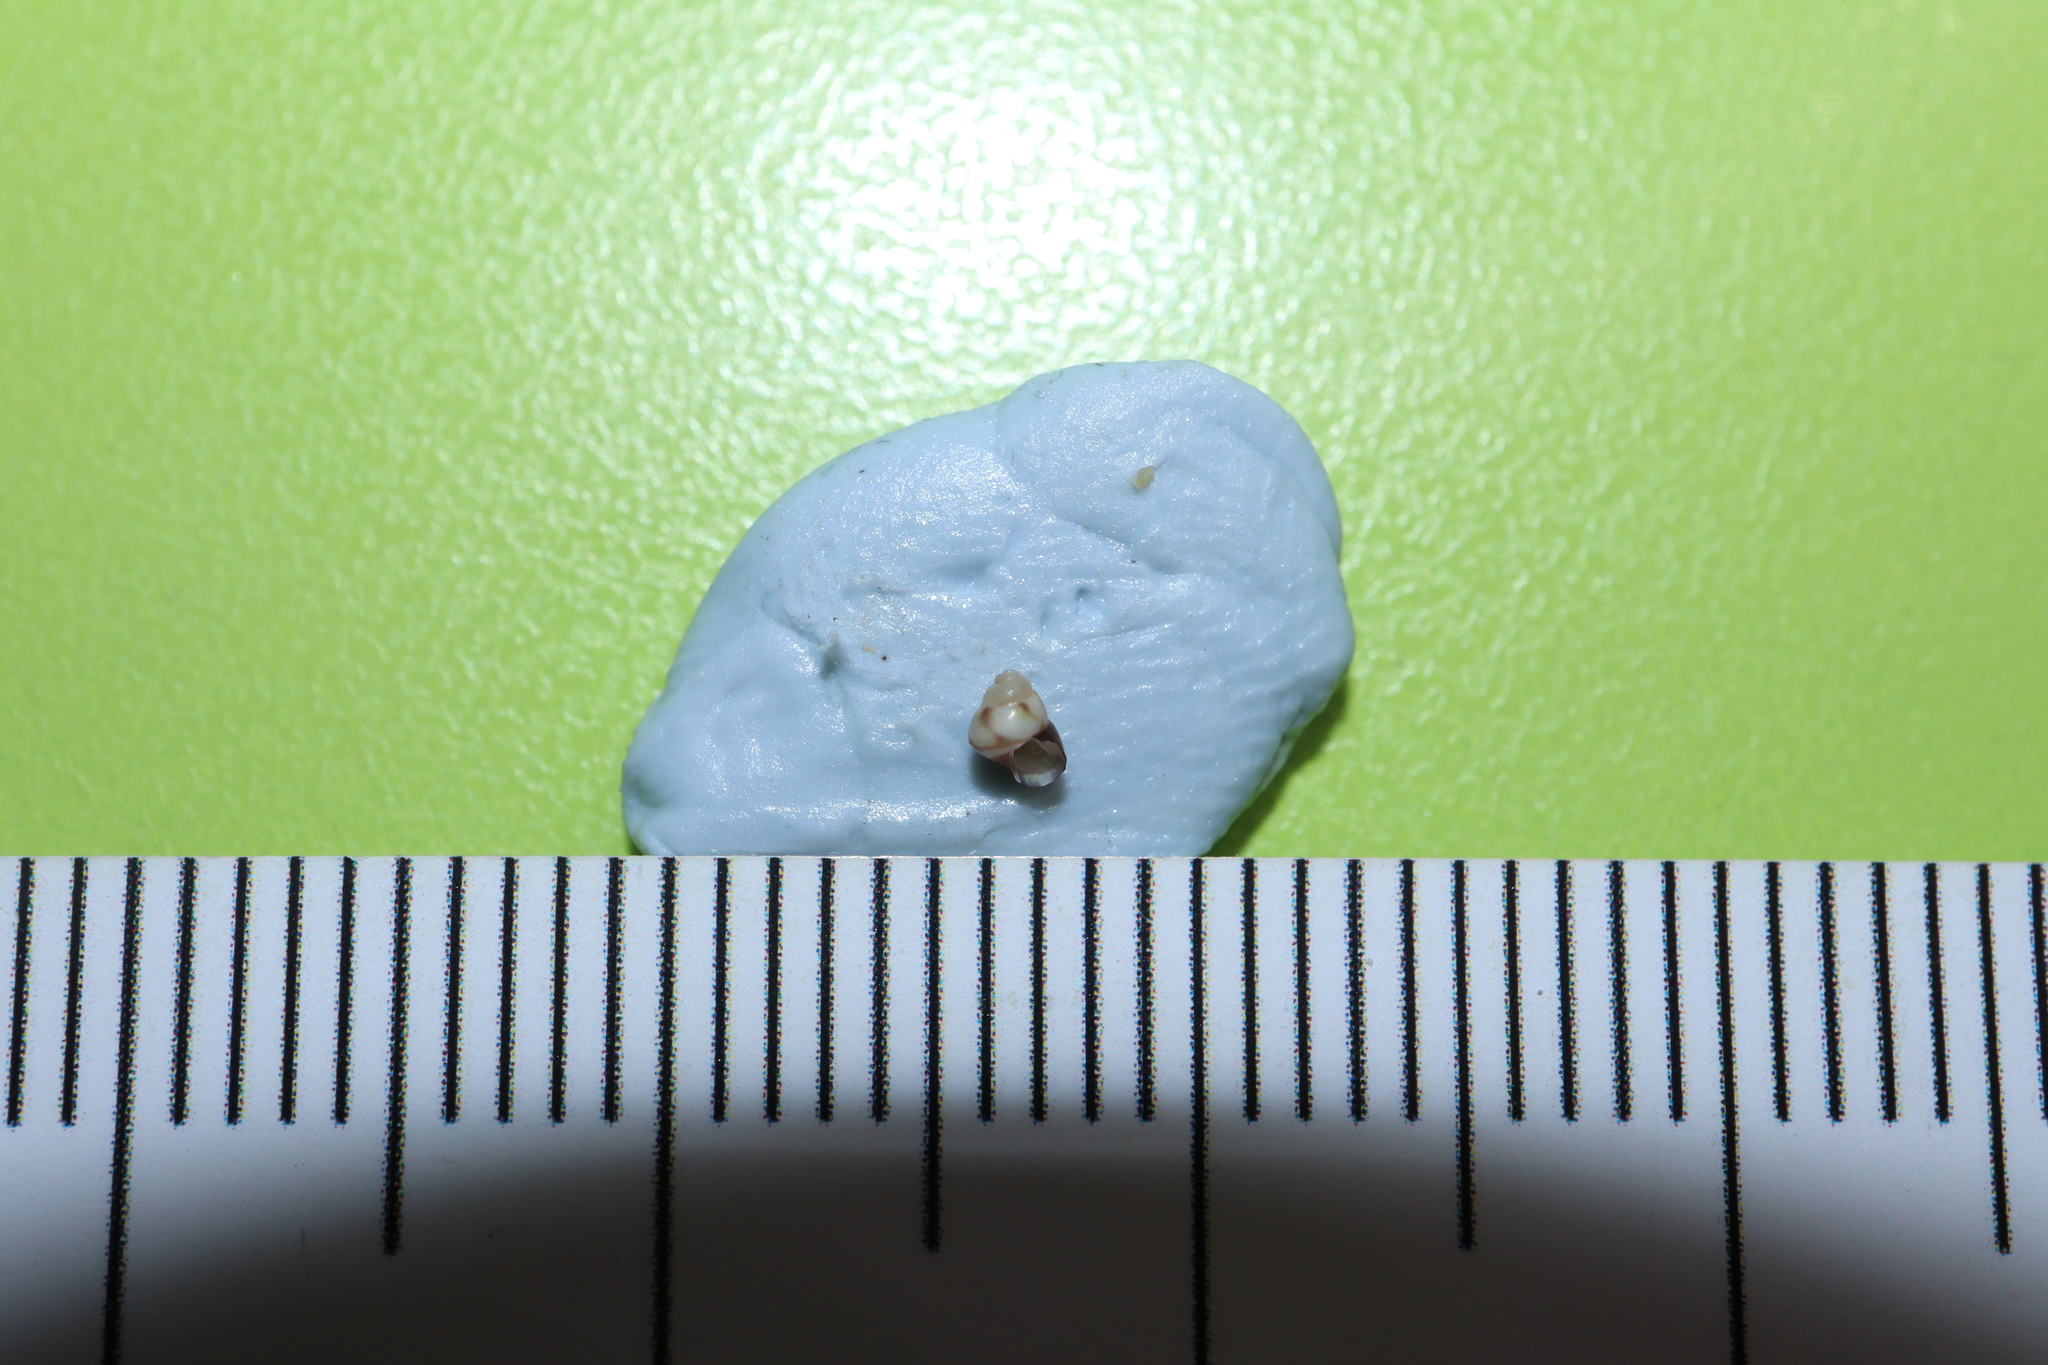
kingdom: Animalia
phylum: Mollusca
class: Gastropoda
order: Trochida
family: Trochidae
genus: Leiopyrga
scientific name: Leiopyrga lineolaris
